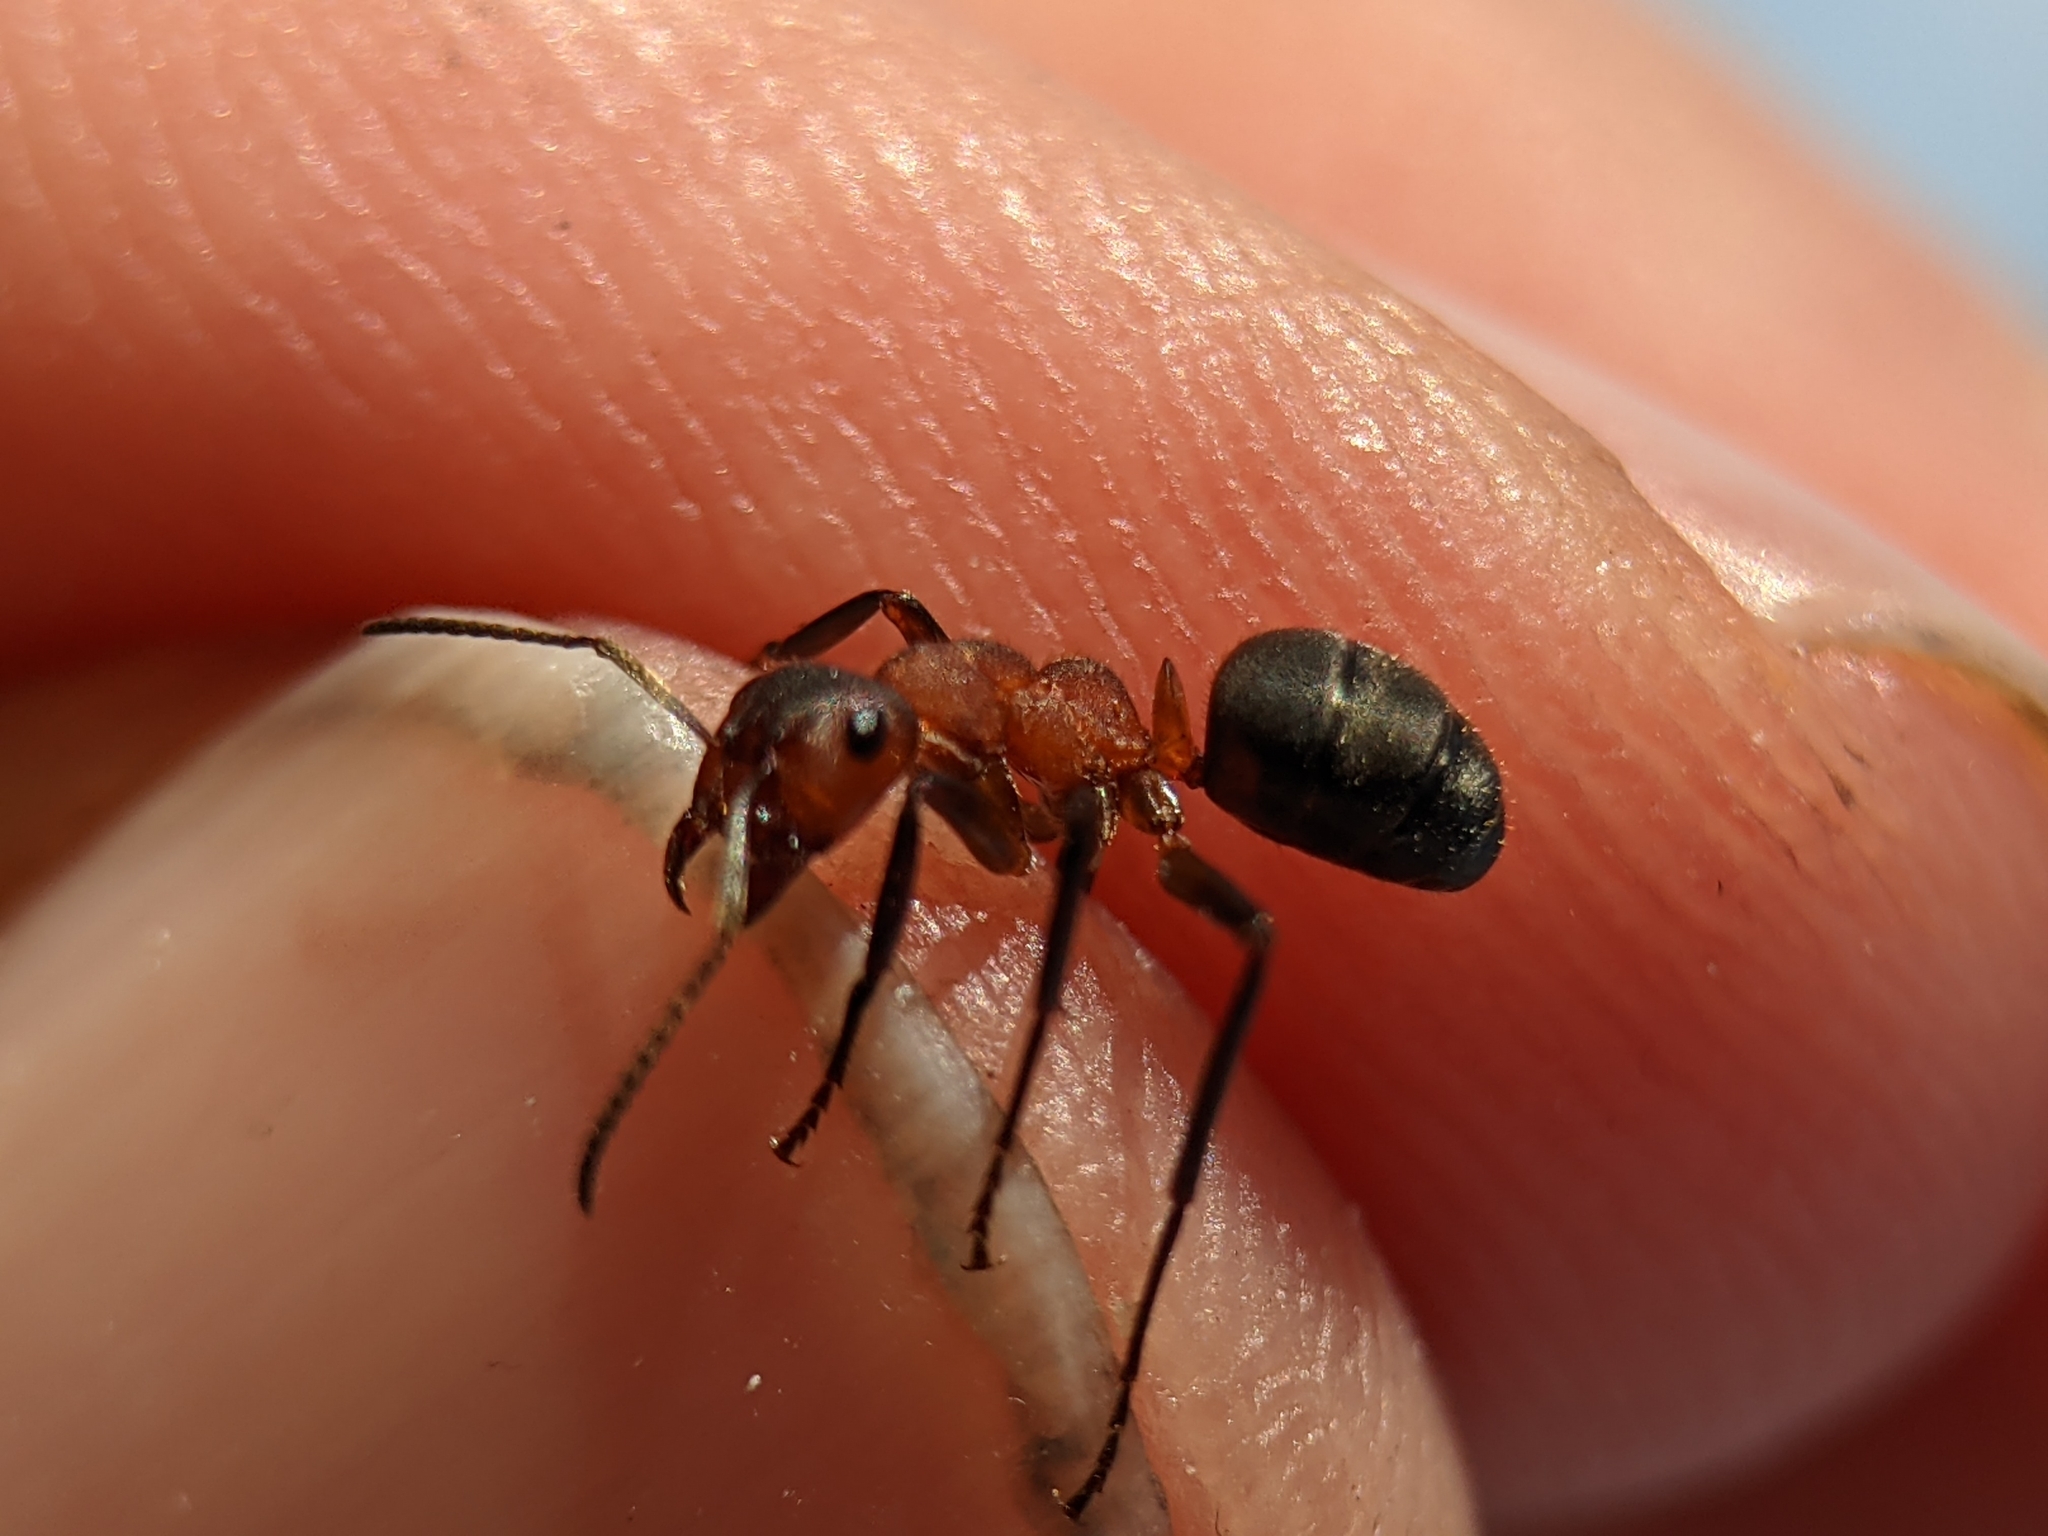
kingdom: Animalia
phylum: Arthropoda
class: Insecta
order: Hymenoptera
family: Formicidae
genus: Formica
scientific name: Formica truncorum
